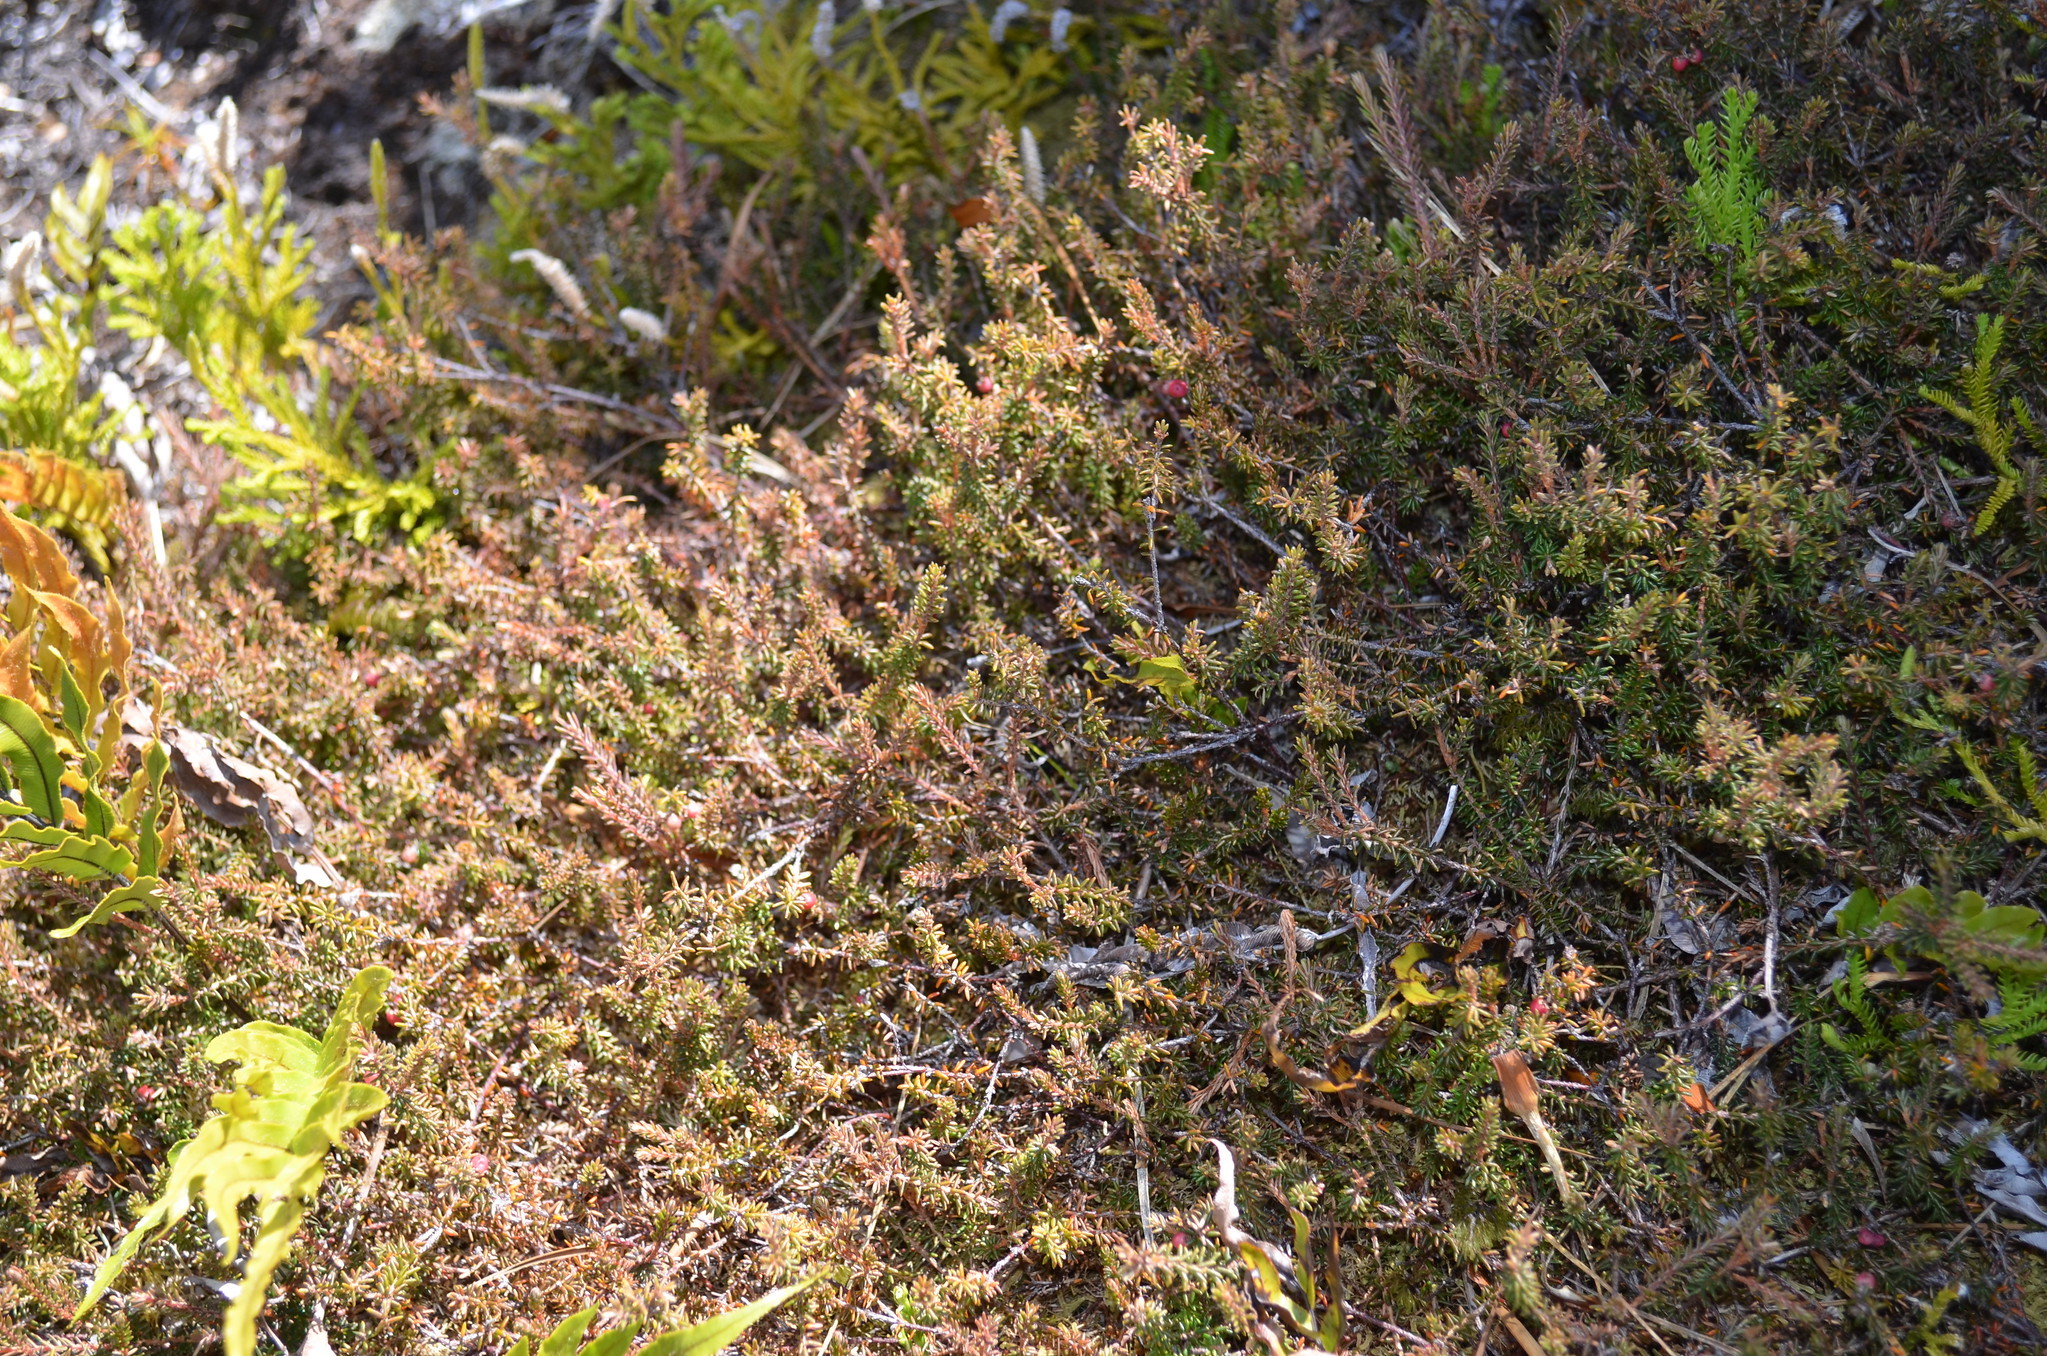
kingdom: Plantae
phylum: Tracheophyta
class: Magnoliopsida
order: Ericales
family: Ericaceae
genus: Androstoma
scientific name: Androstoma empetrifolia
